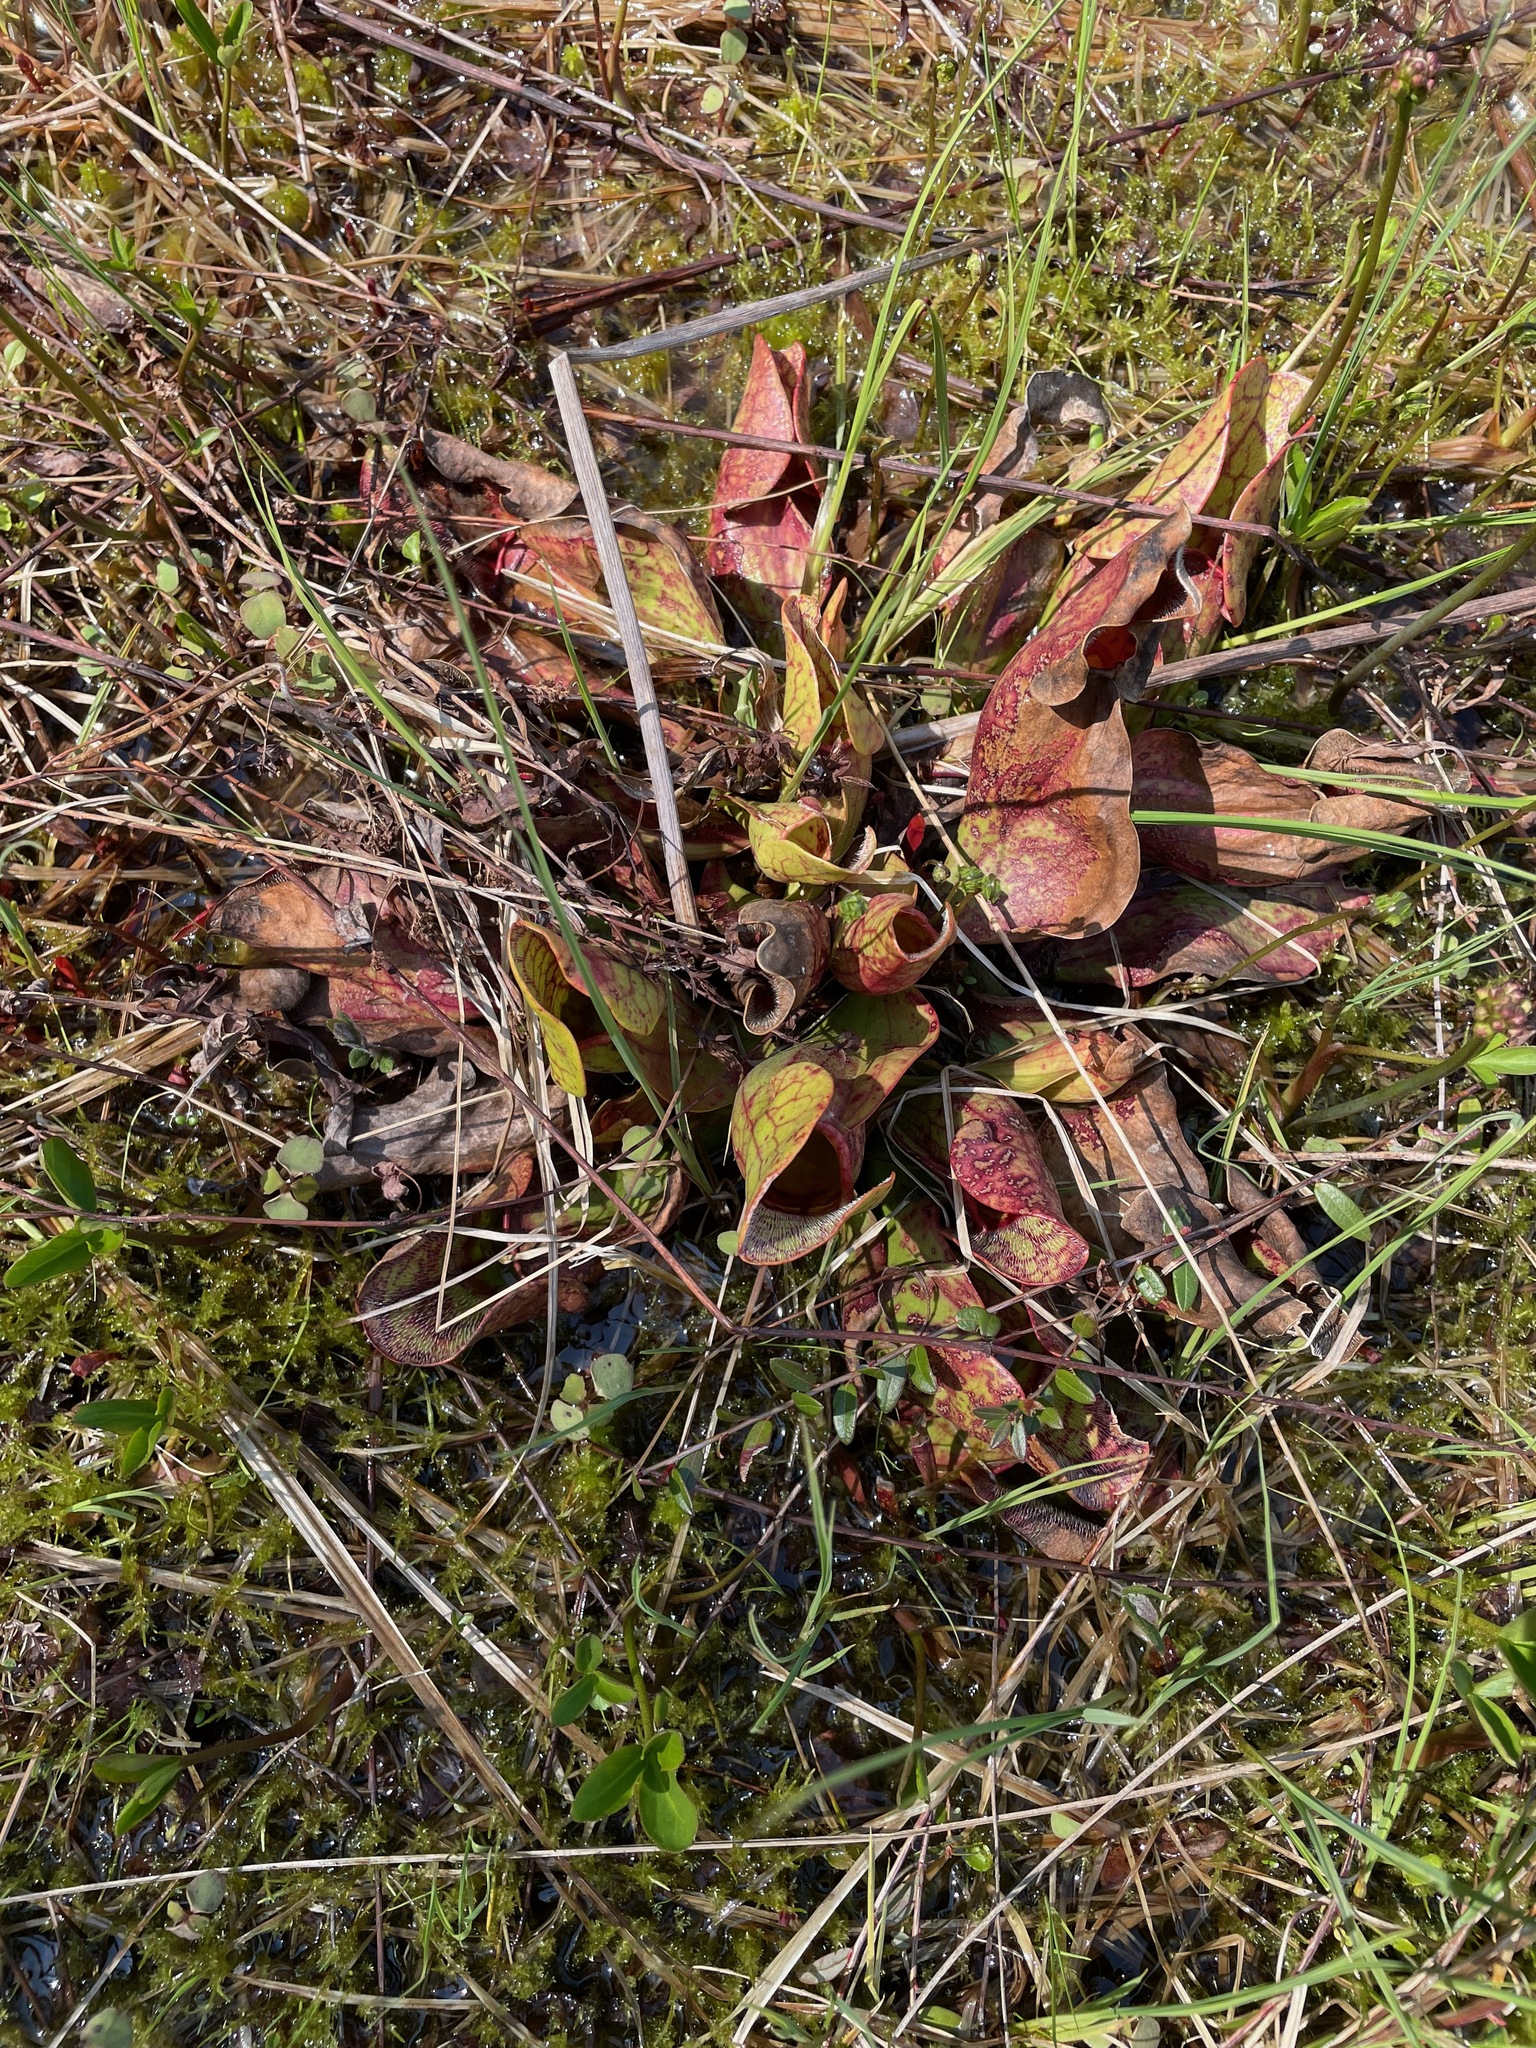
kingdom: Plantae
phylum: Tracheophyta
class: Magnoliopsida
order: Ericales
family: Sarraceniaceae
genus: Sarracenia
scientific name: Sarracenia purpurea
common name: Pitcherplant
